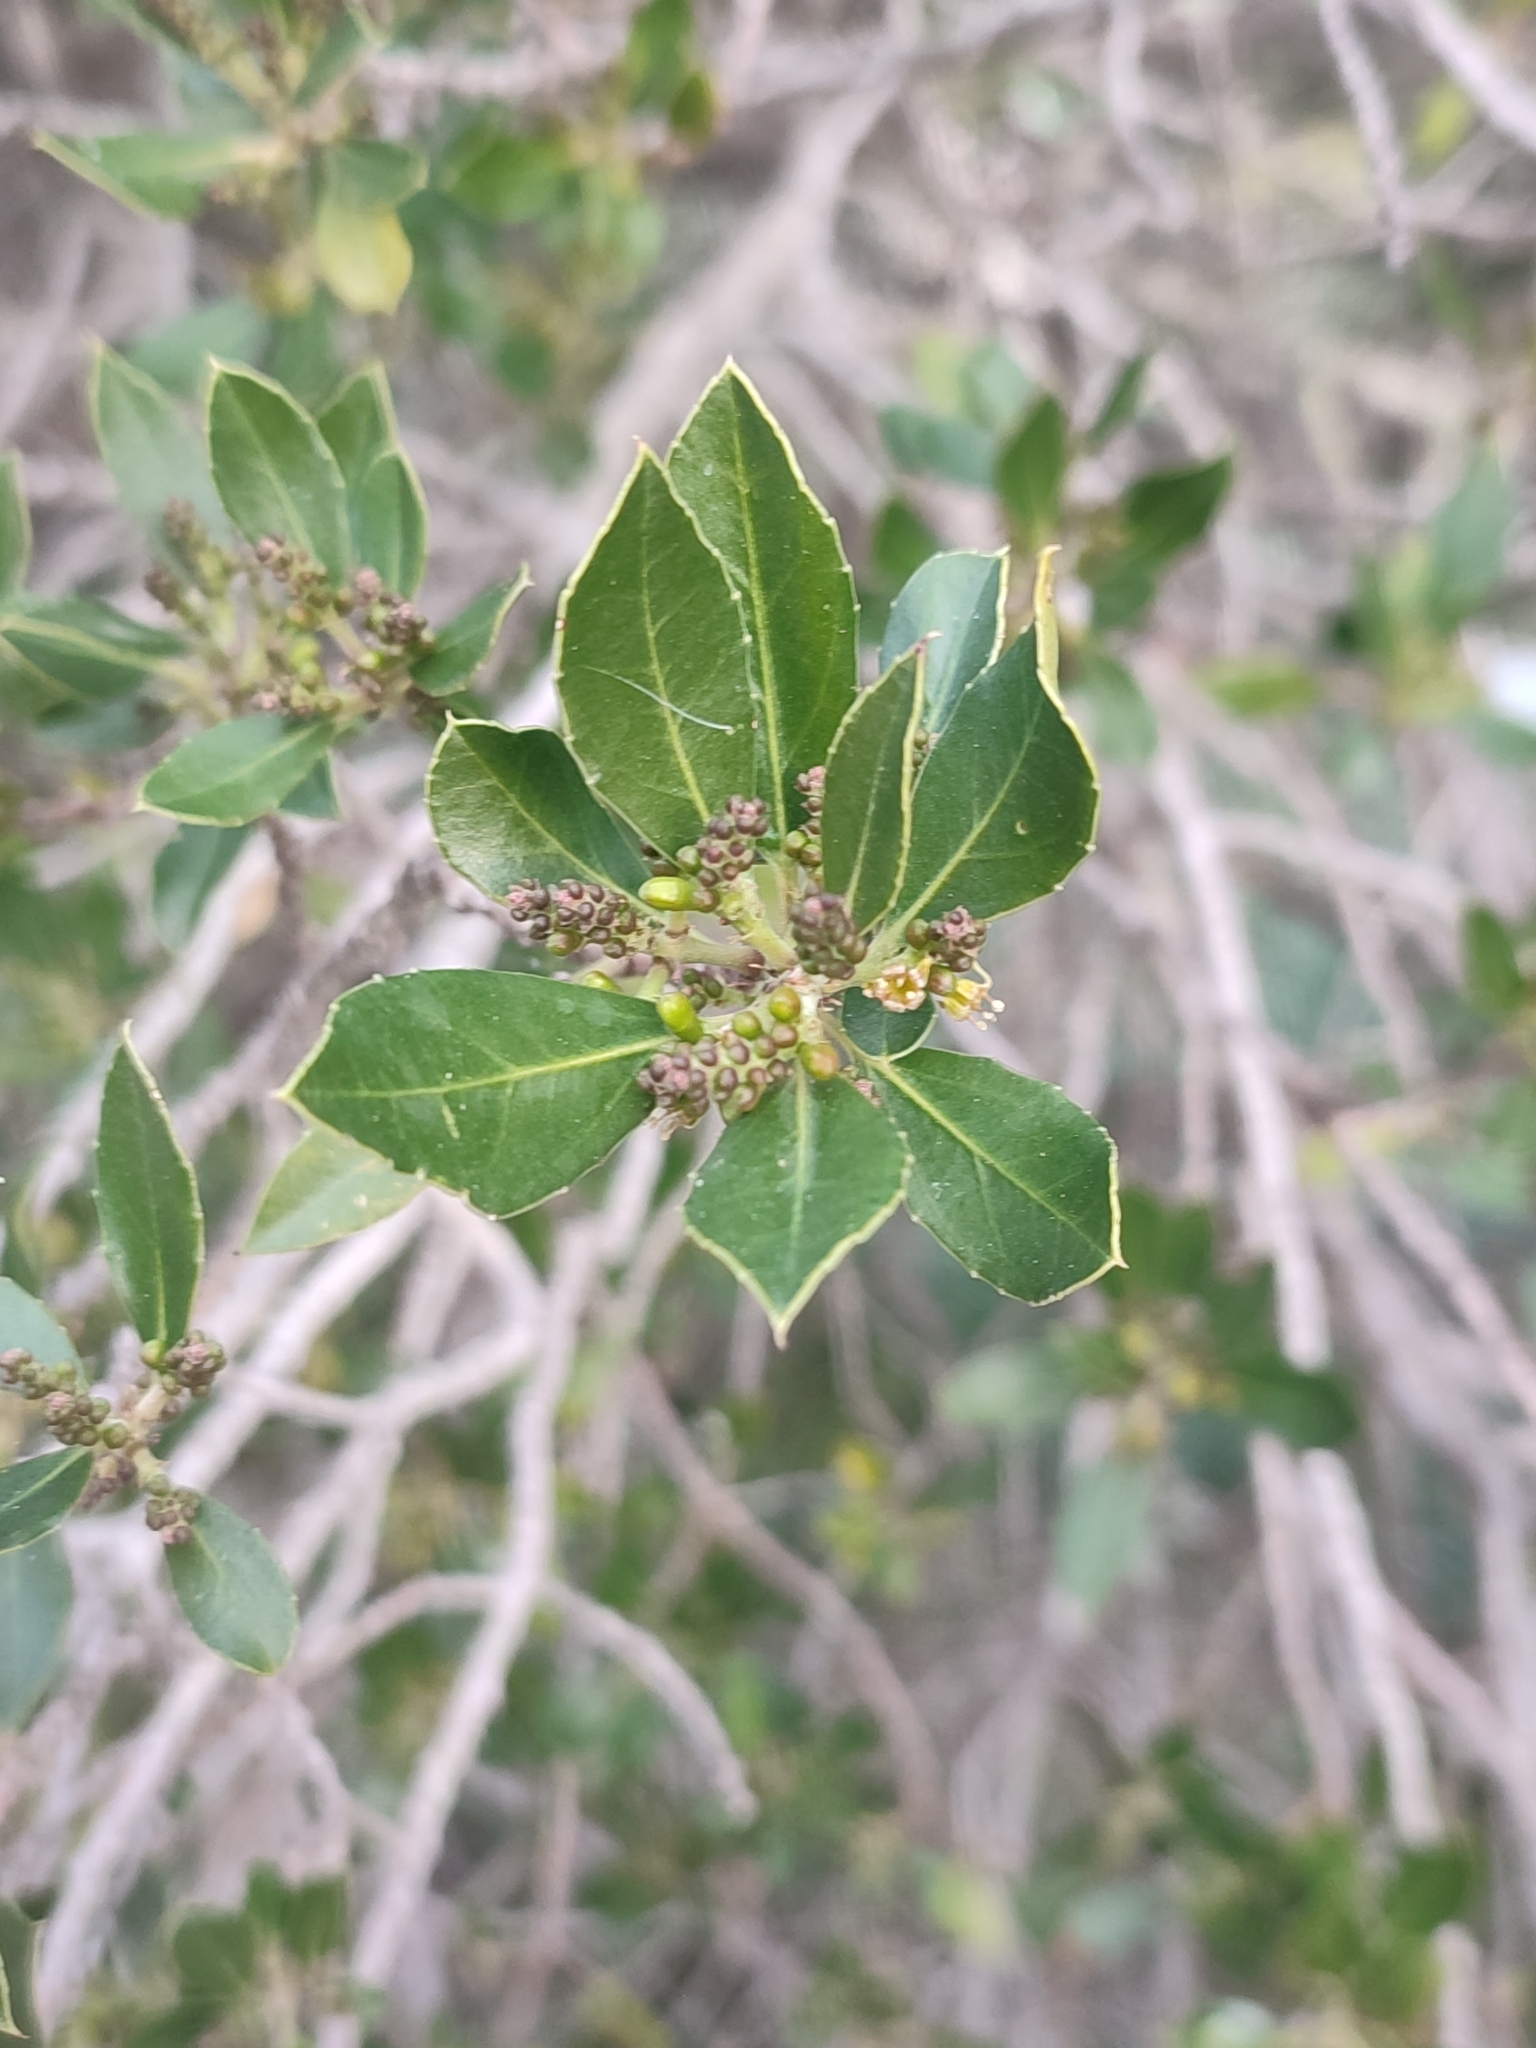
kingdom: Plantae
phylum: Tracheophyta
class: Magnoliopsida
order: Rosales
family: Rhamnaceae
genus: Rhamnus
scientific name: Rhamnus alaternus
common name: Mediterranean buckthorn
